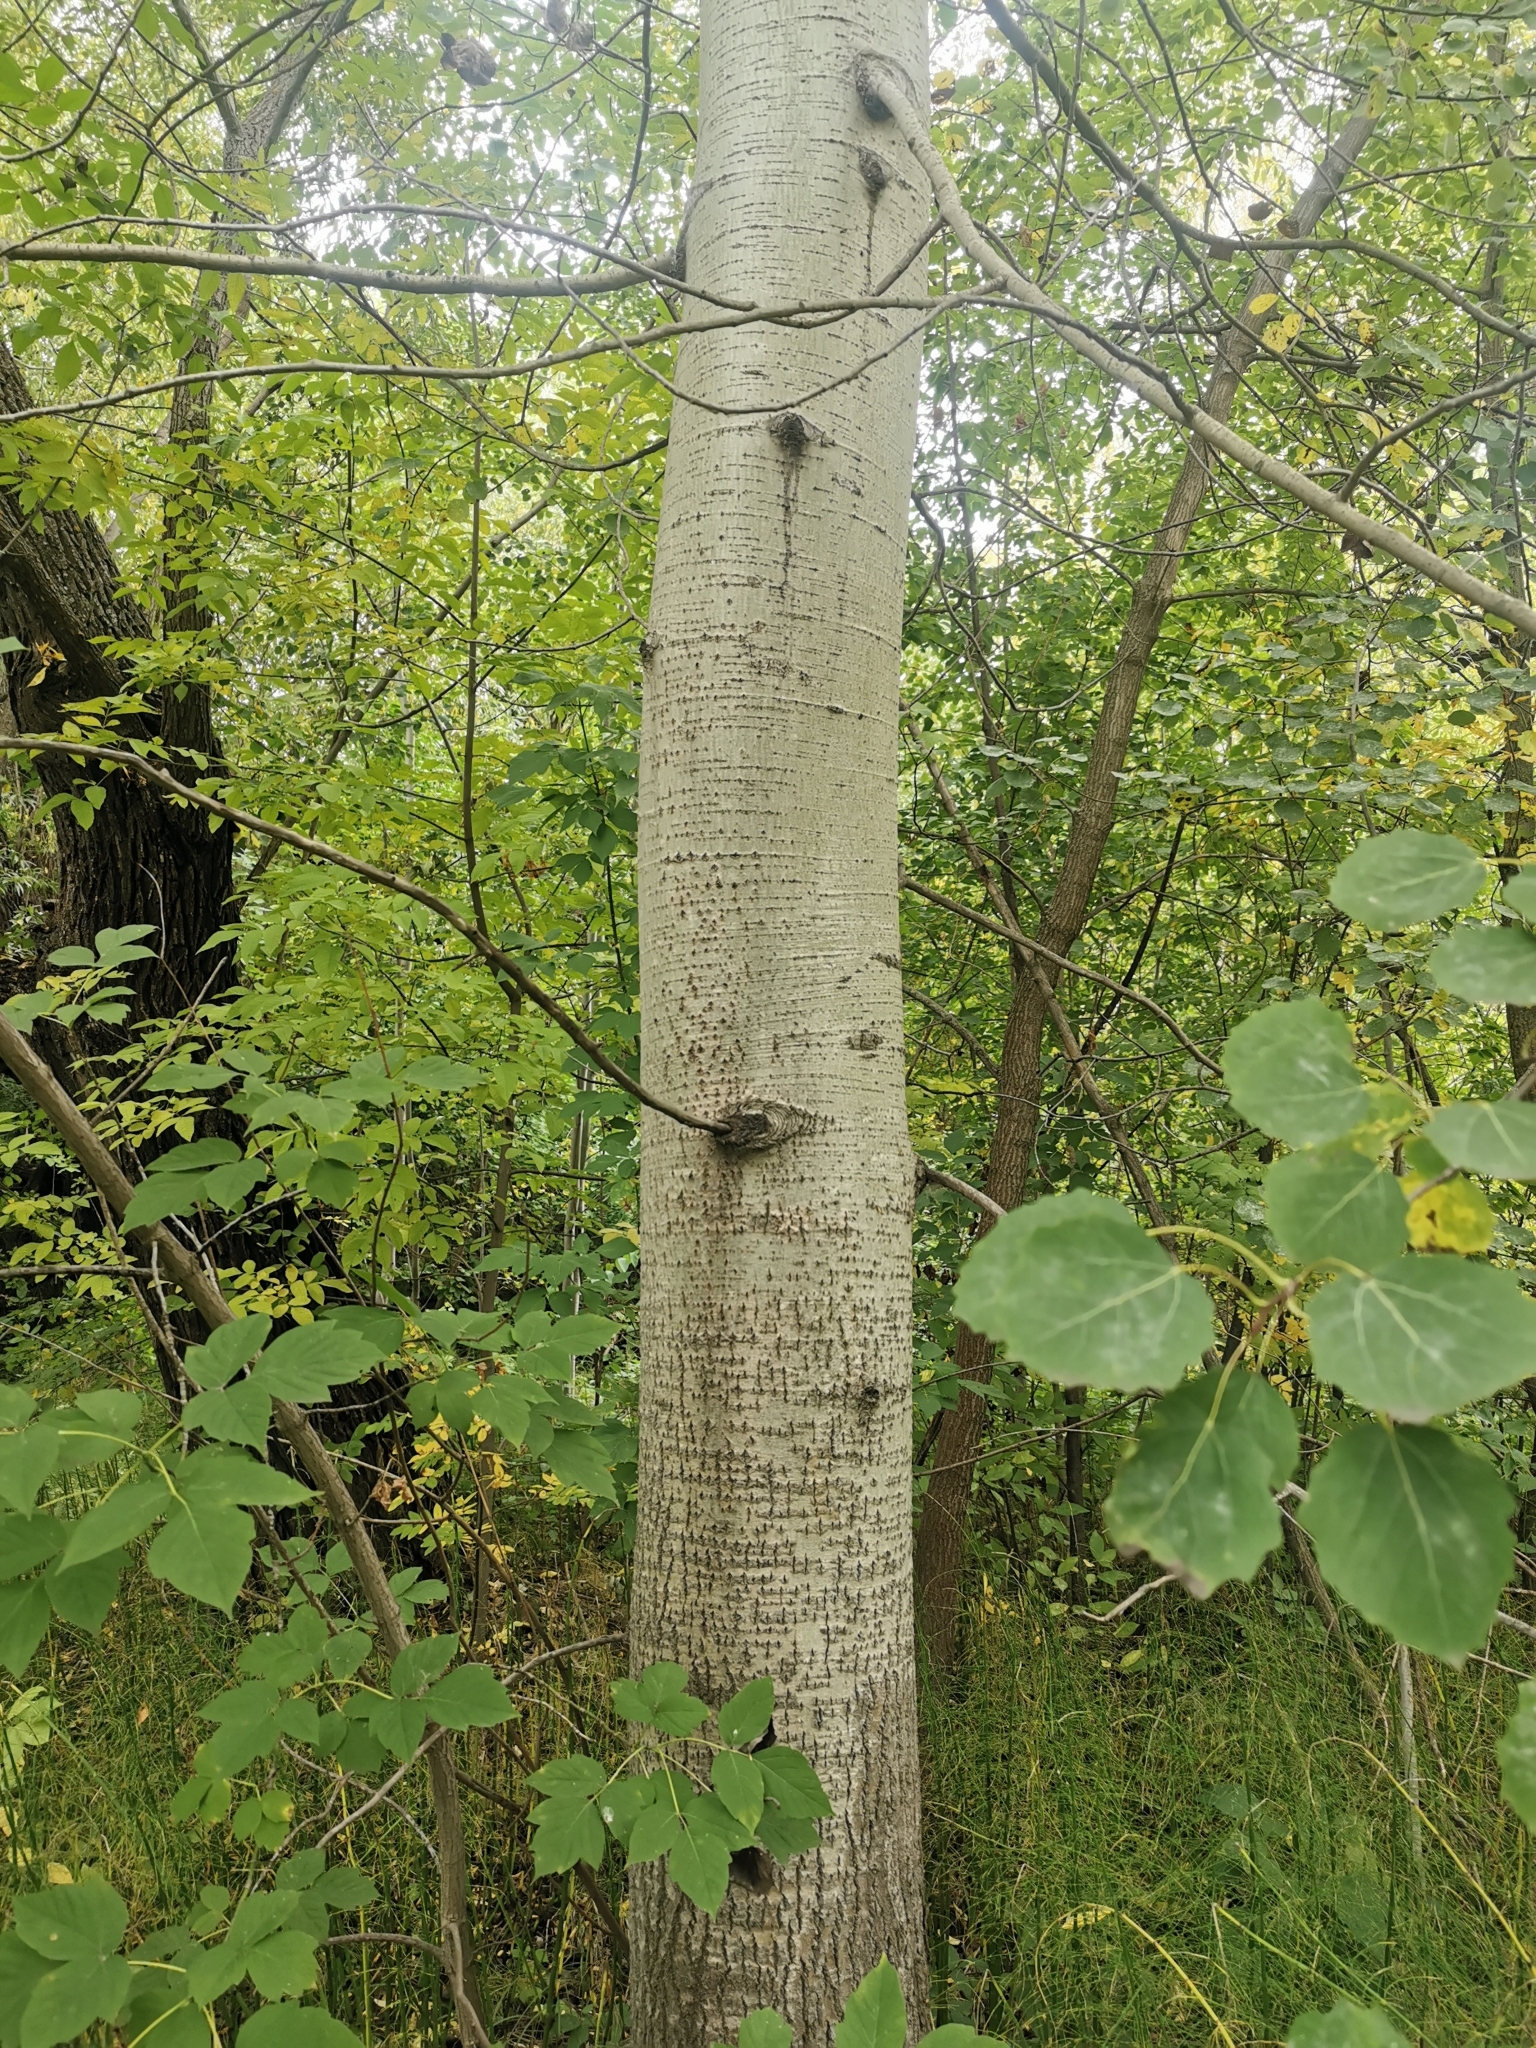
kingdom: Plantae
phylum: Tracheophyta
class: Magnoliopsida
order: Malpighiales
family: Salicaceae
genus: Populus
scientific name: Populus tremula
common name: European aspen
